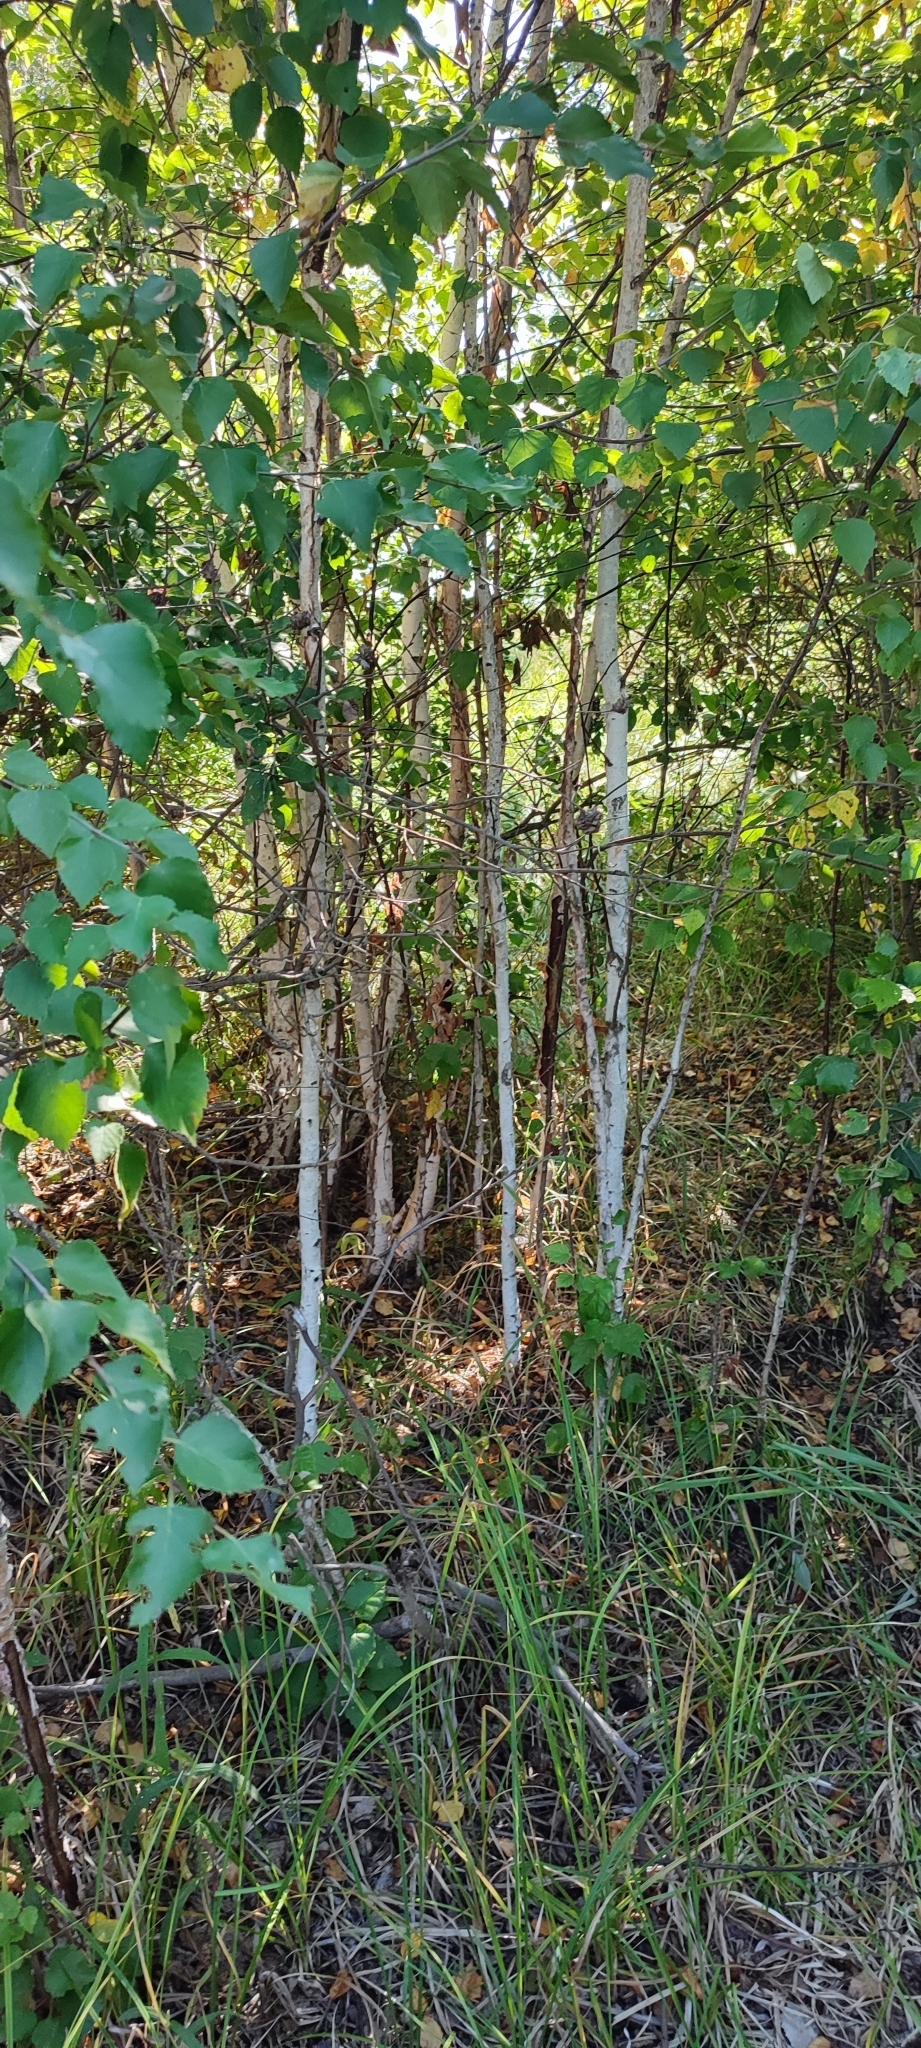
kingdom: Plantae
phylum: Tracheophyta
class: Magnoliopsida
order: Fagales
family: Betulaceae
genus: Betula
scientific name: Betula pubescens
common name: Downy birch
